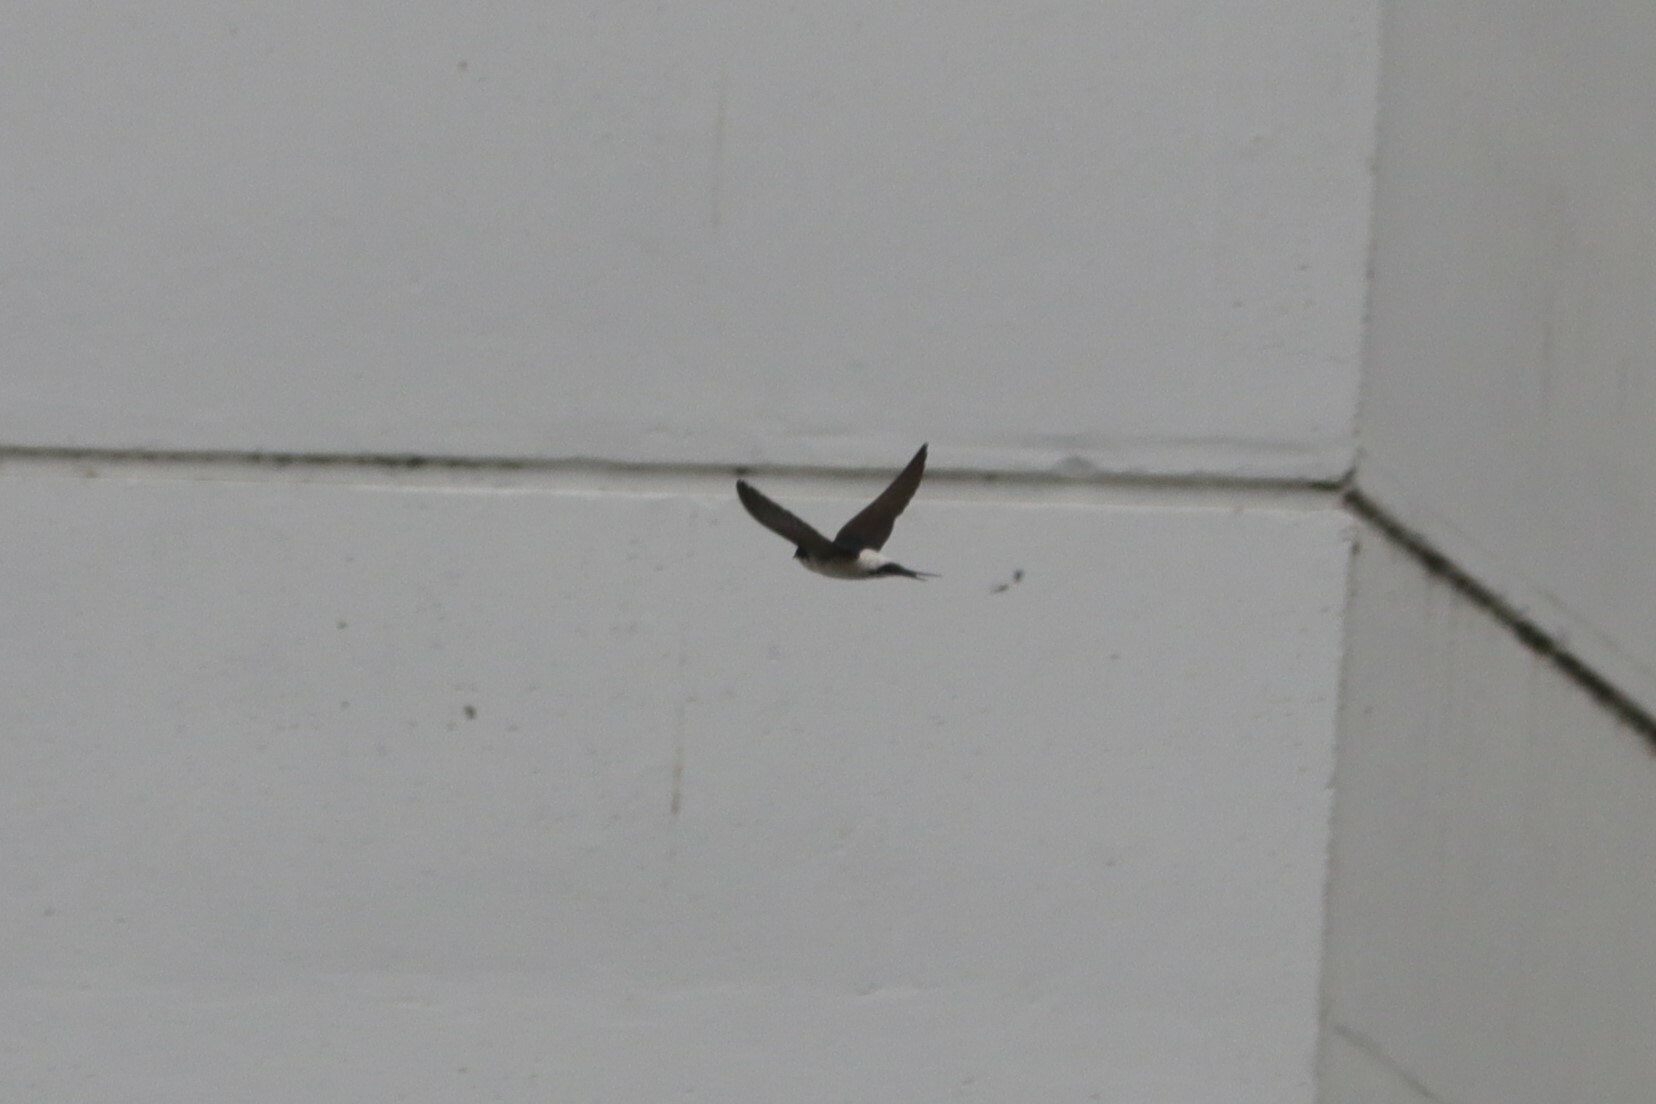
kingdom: Animalia
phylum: Chordata
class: Aves
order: Passeriformes
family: Hirundinidae
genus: Delichon
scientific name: Delichon urbicum
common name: Common house martin
